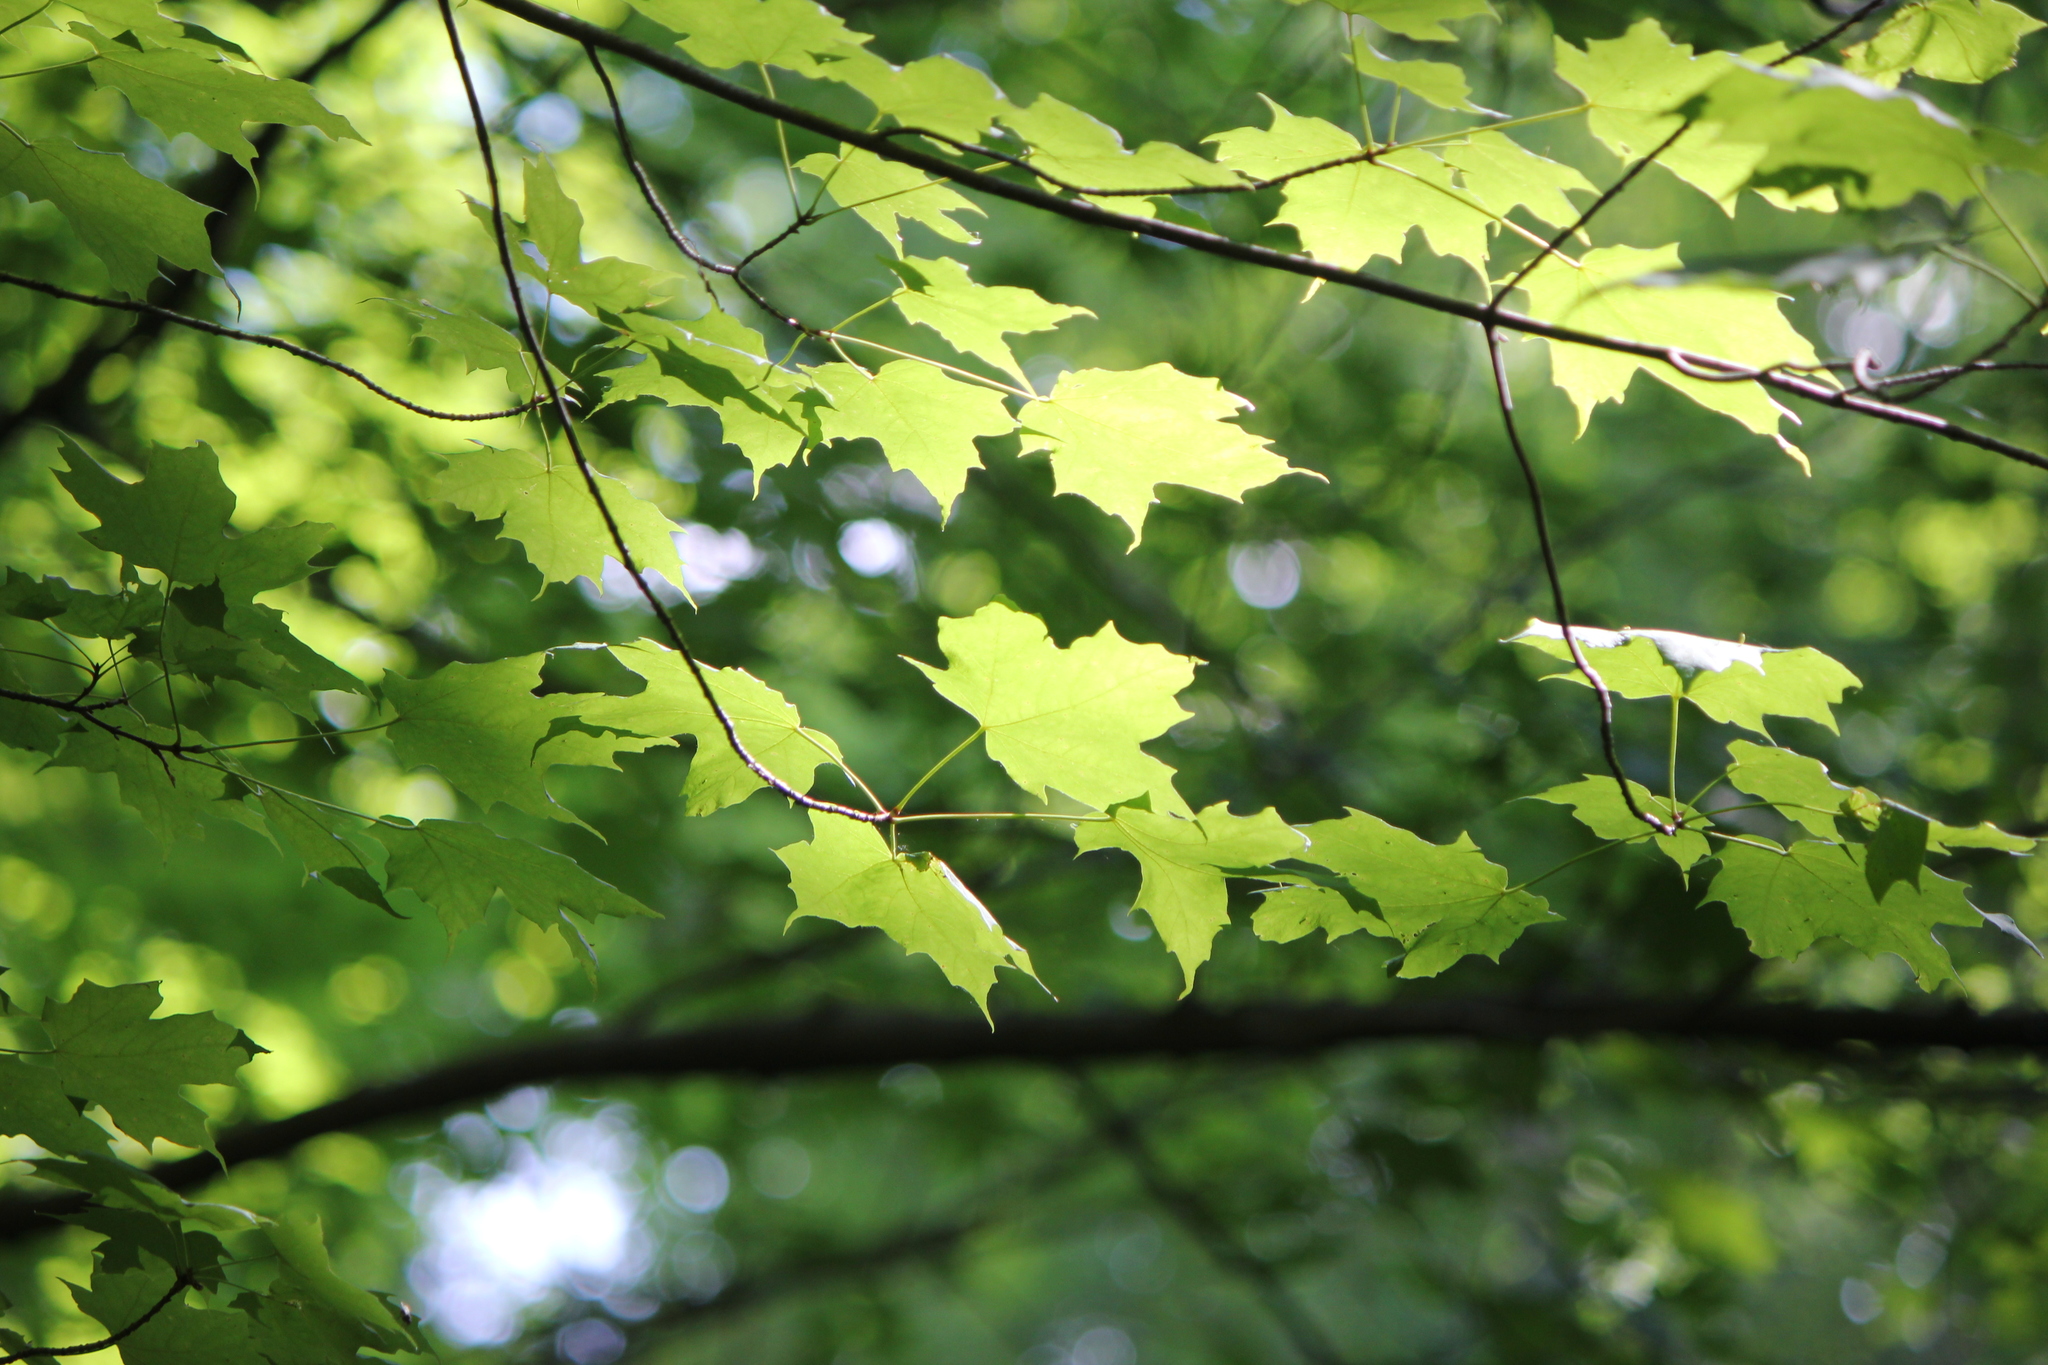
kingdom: Plantae
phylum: Tracheophyta
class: Magnoliopsida
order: Sapindales
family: Sapindaceae
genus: Acer
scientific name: Acer nigrum
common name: Black maple
